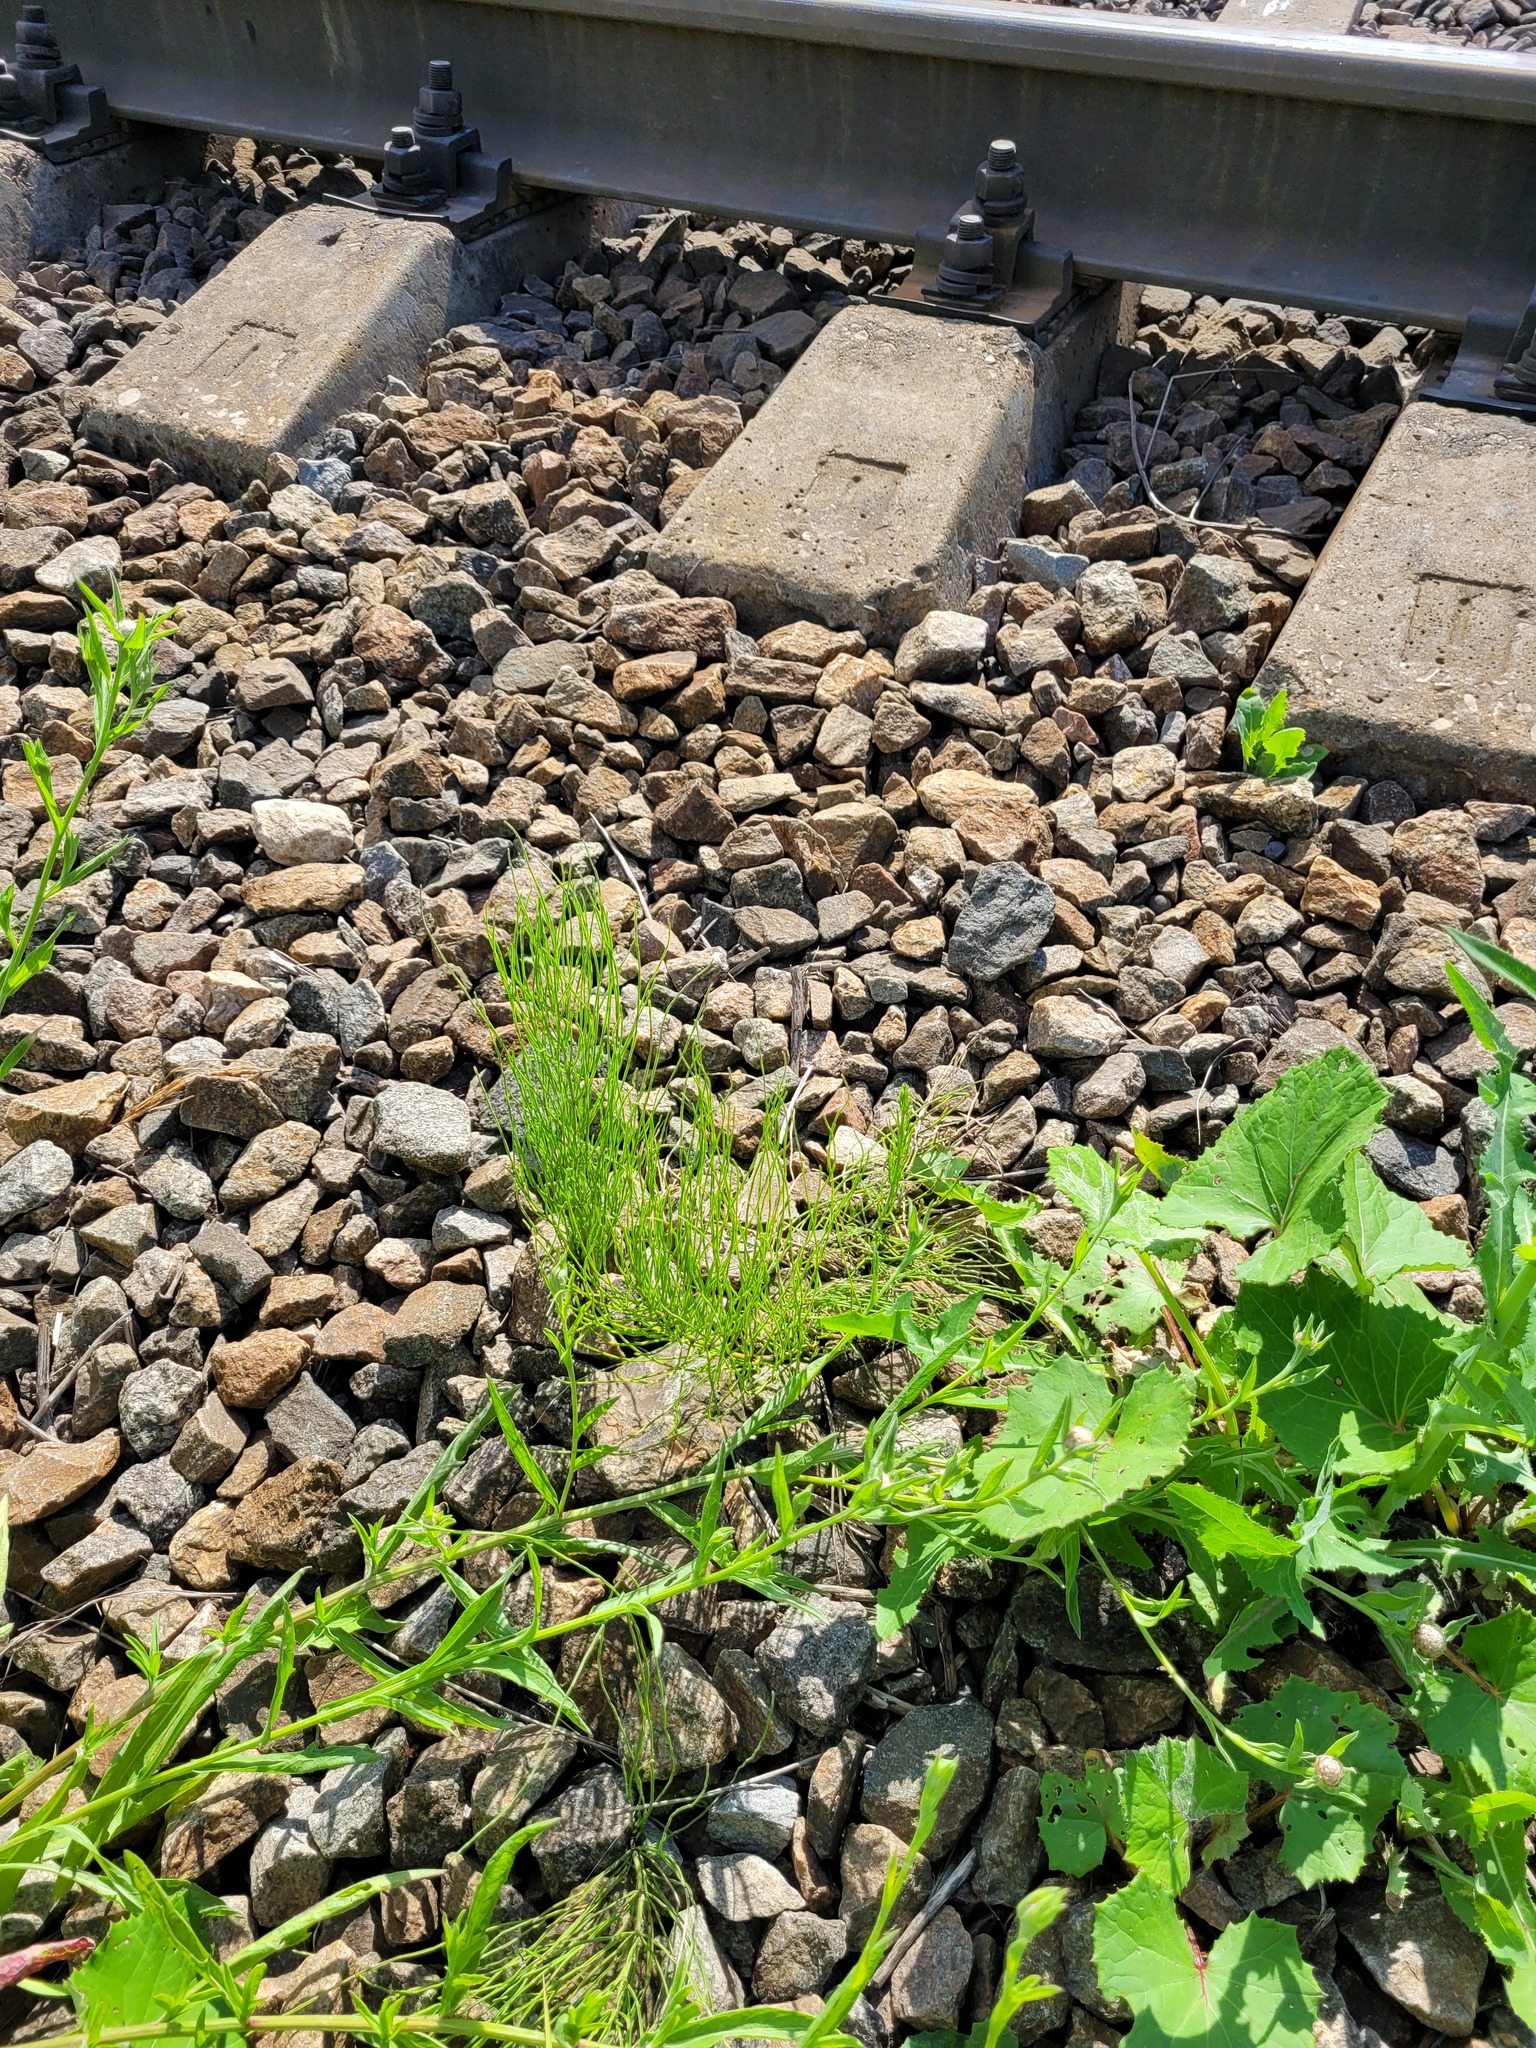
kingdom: Plantae
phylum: Tracheophyta
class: Polypodiopsida
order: Equisetales
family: Equisetaceae
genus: Equisetum
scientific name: Equisetum arvense
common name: Field horsetail
